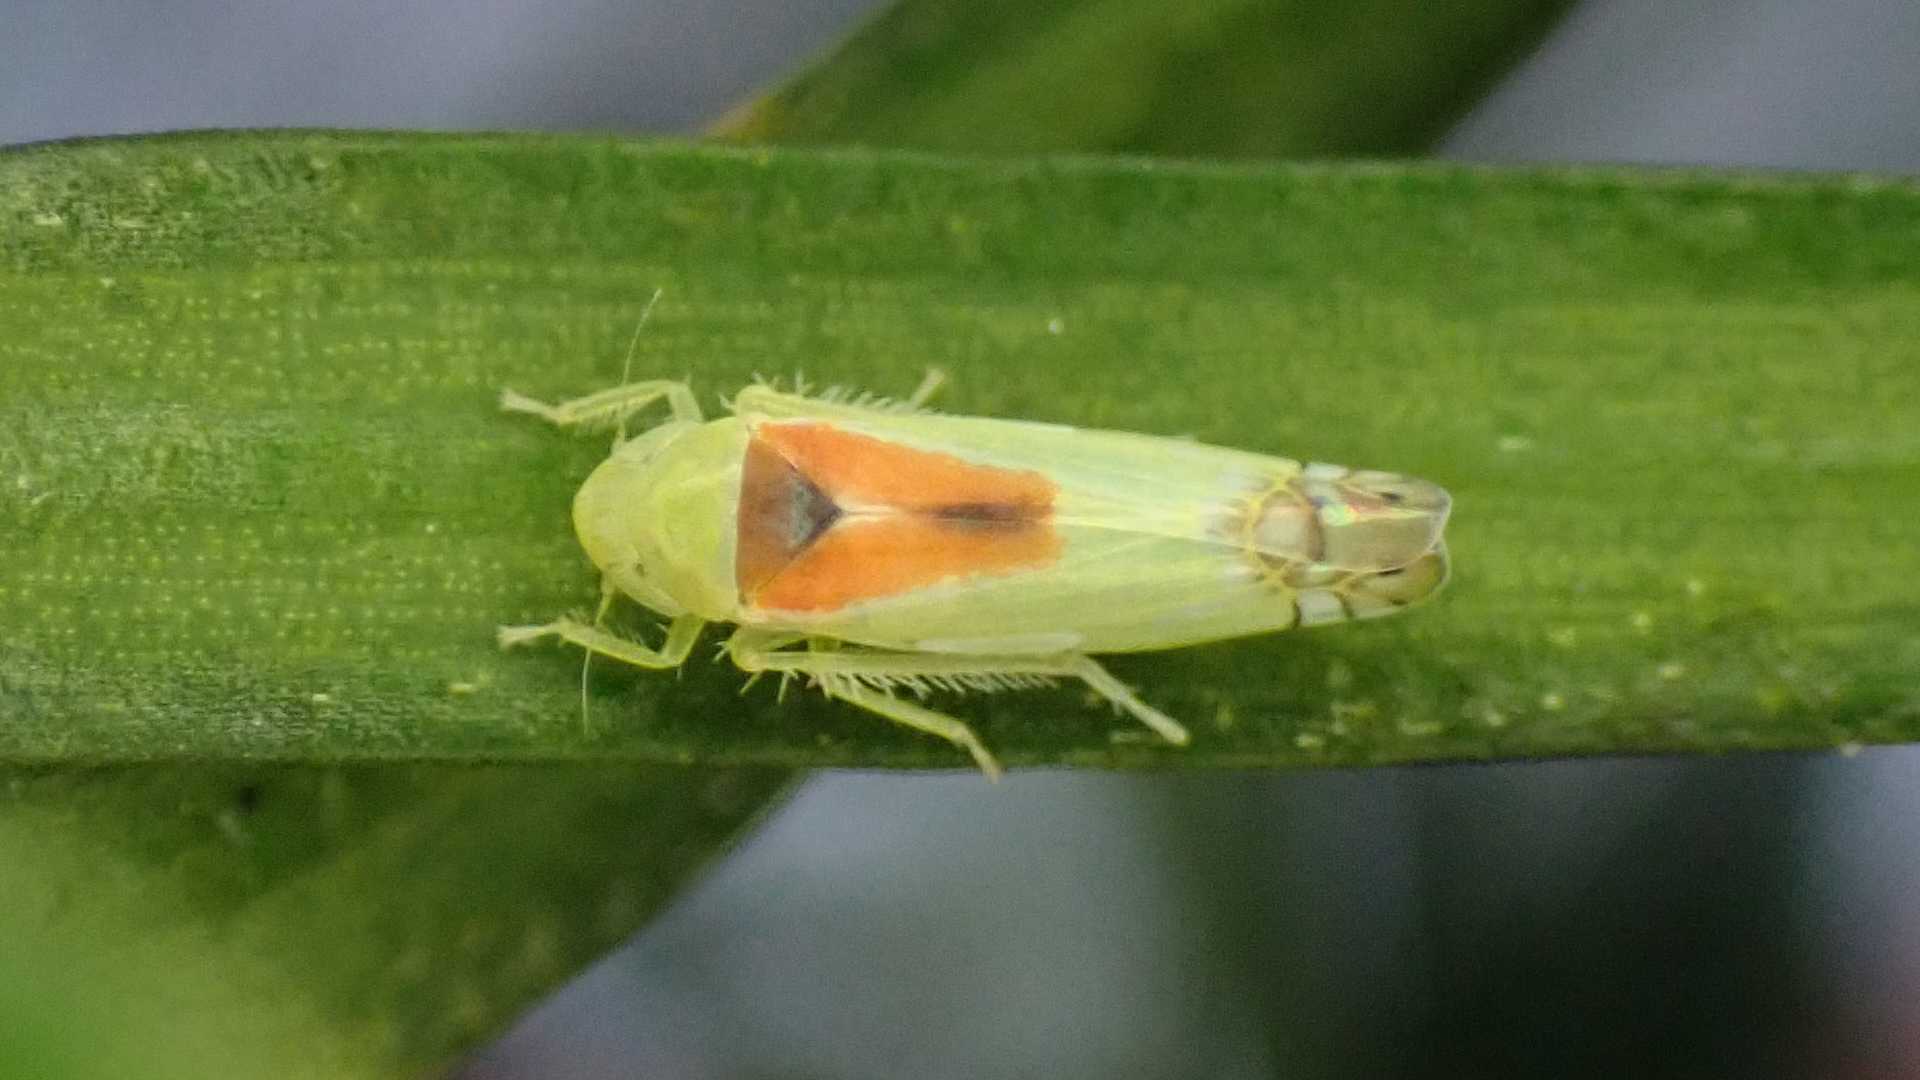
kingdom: Animalia
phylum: Arthropoda
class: Insecta
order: Hemiptera
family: Cicadellidae
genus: Zyginella
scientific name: Zyginella pulchra
